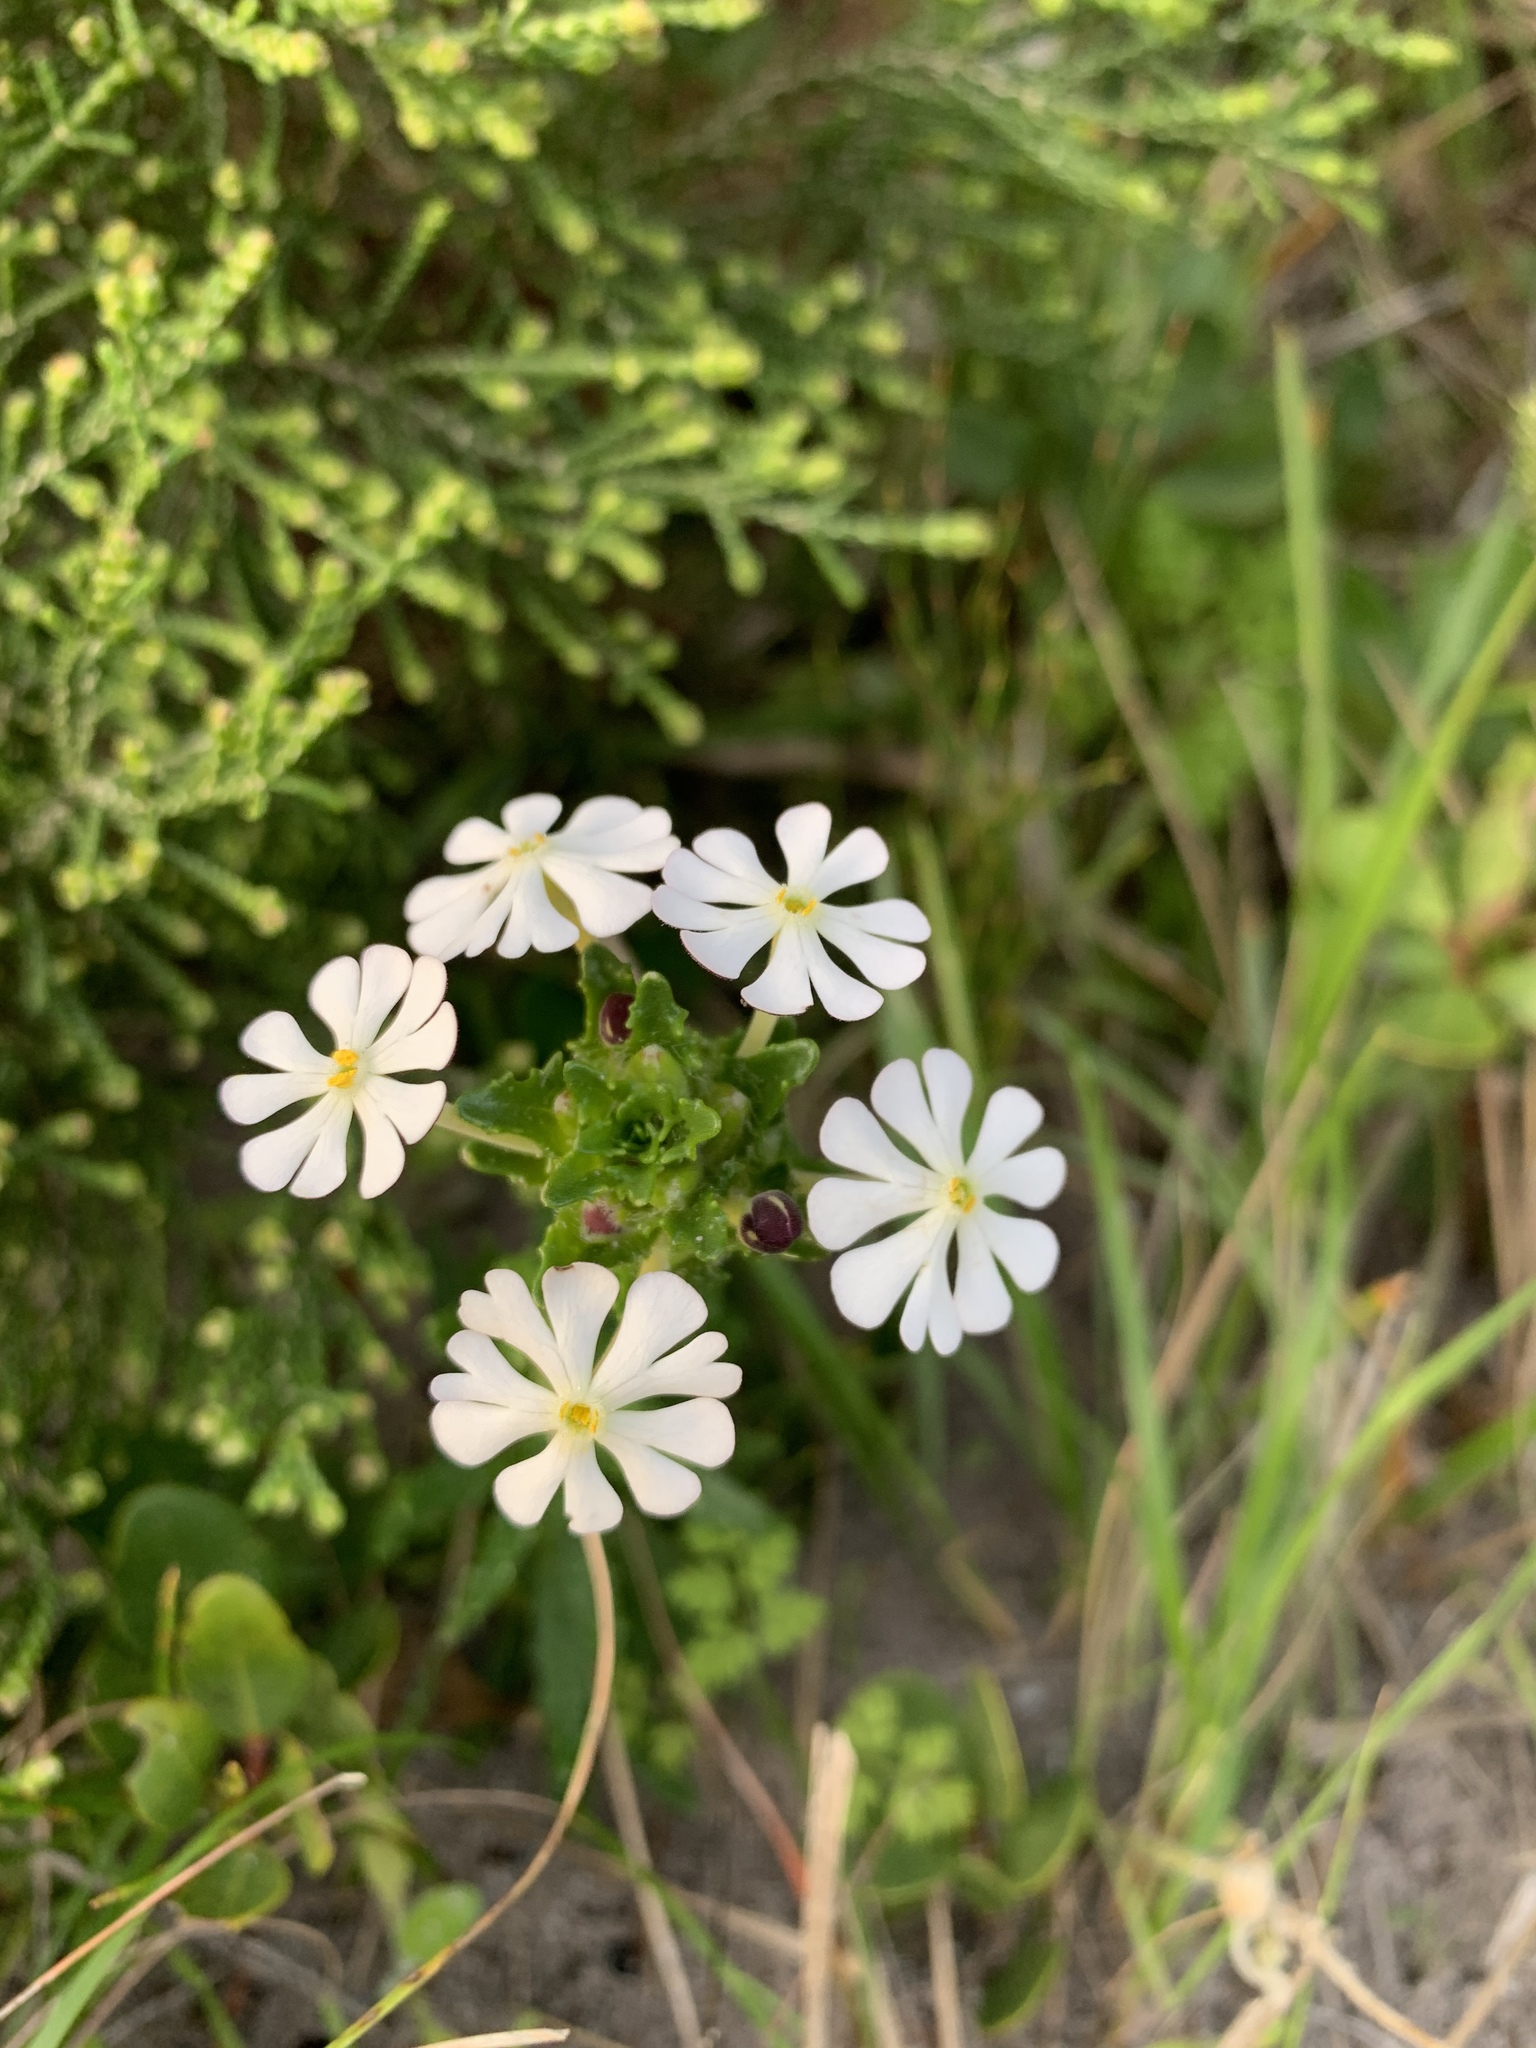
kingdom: Plantae
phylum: Tracheophyta
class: Magnoliopsida
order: Lamiales
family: Scrophulariaceae
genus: Zaluzianskya
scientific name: Zaluzianskya capensis
